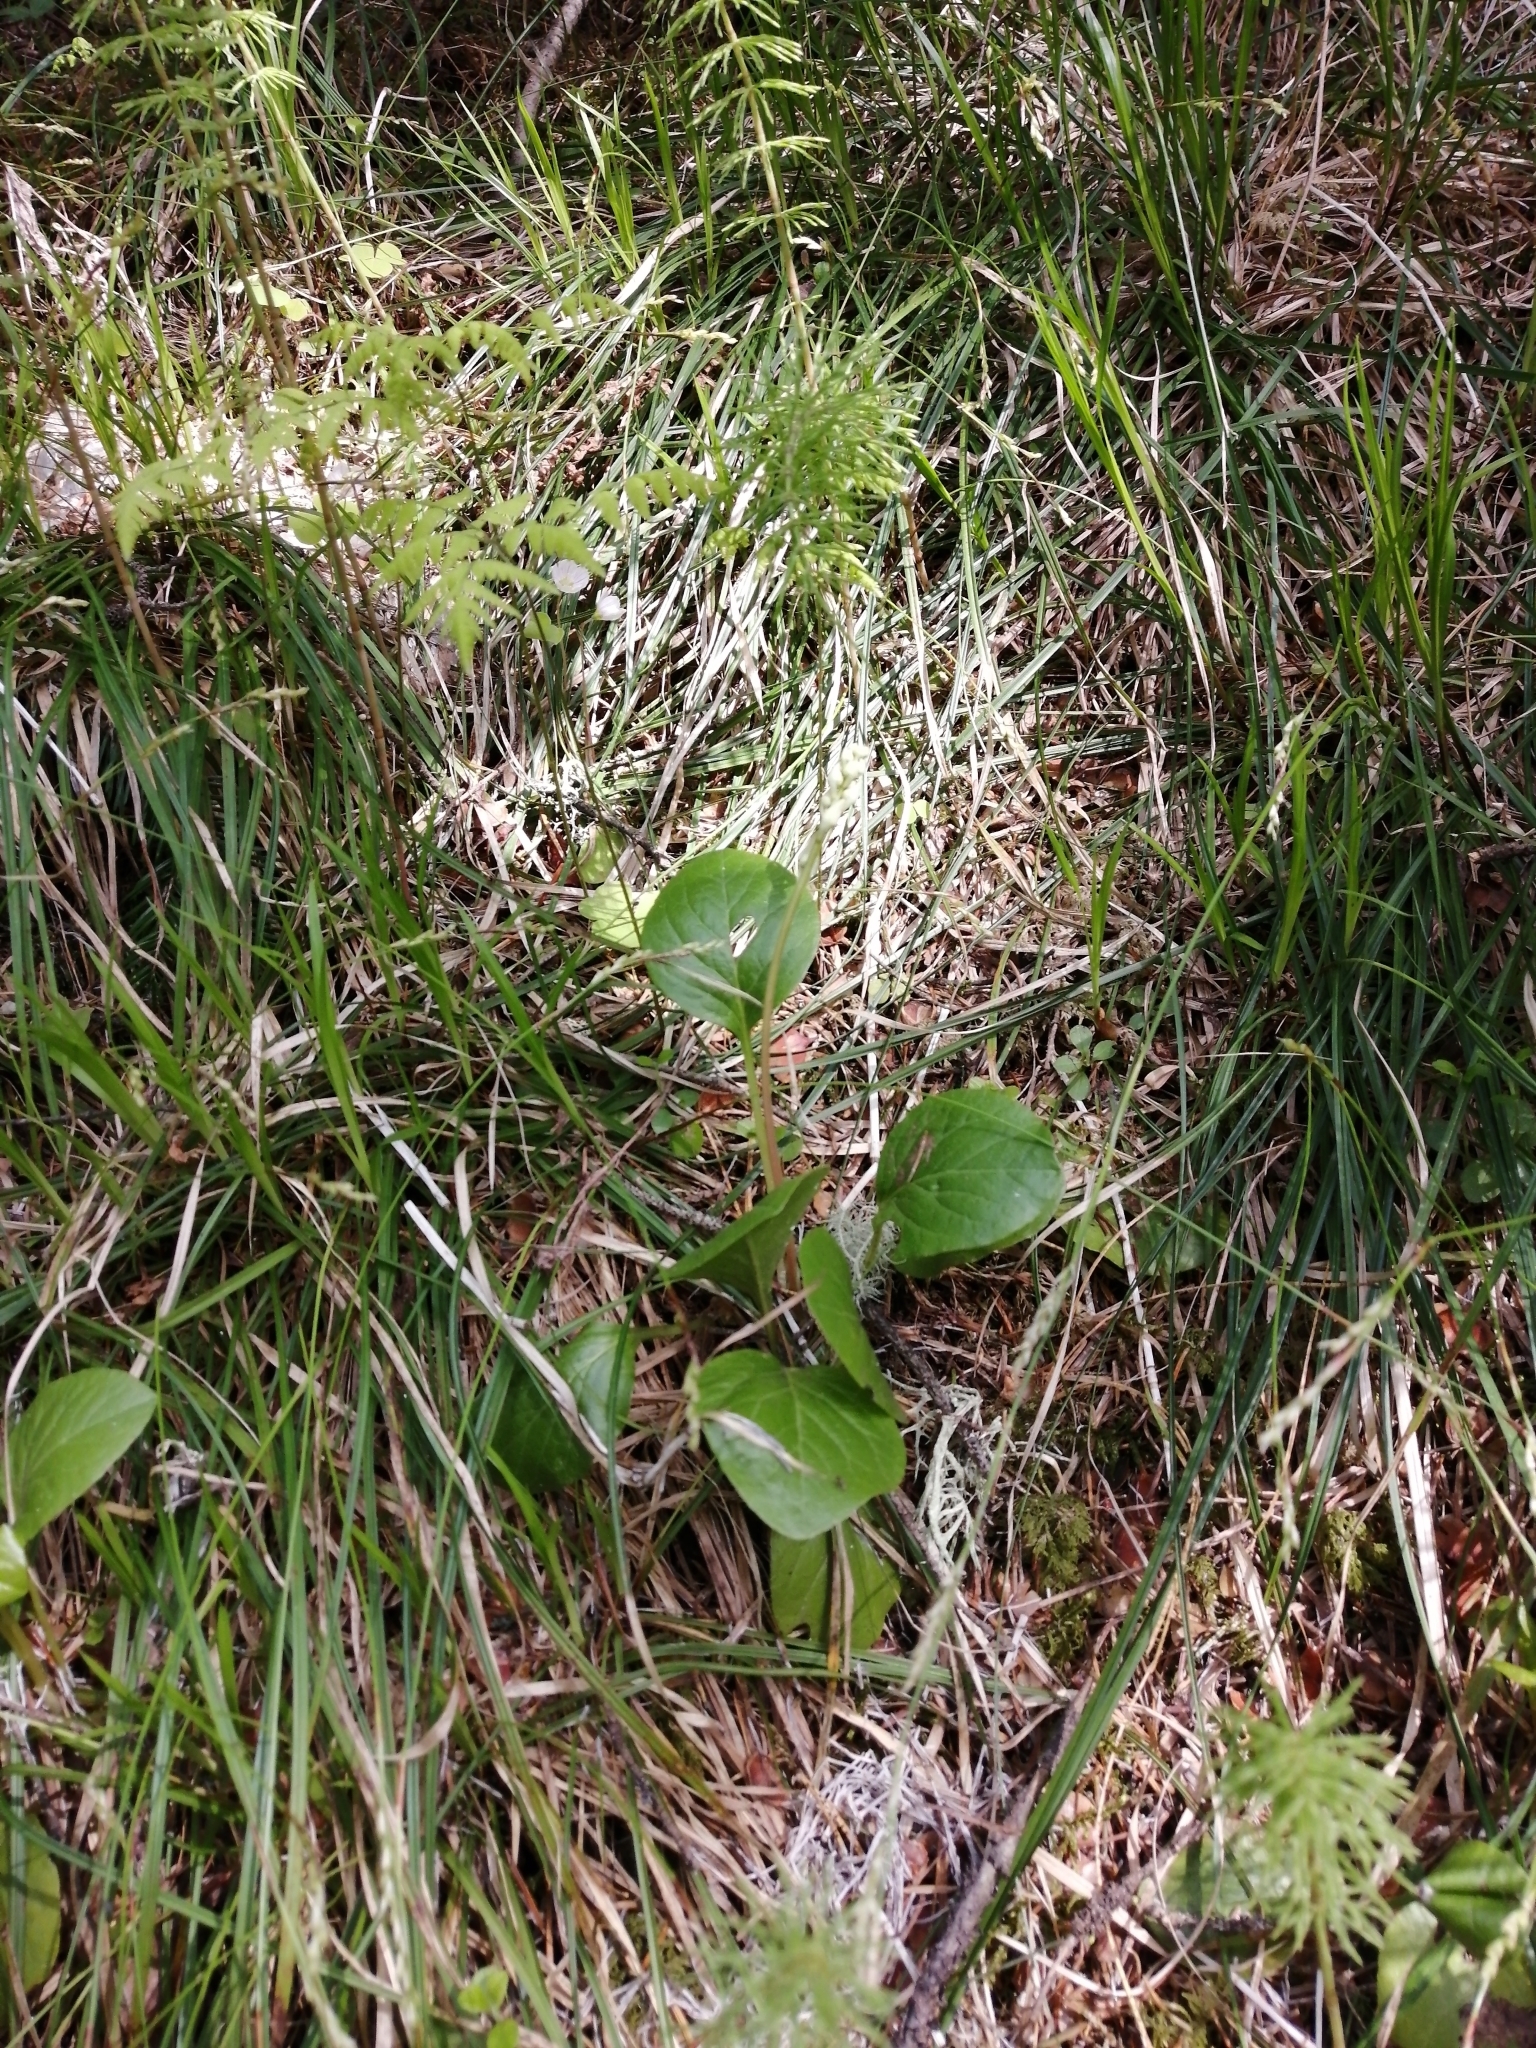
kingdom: Plantae
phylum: Tracheophyta
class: Magnoliopsida
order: Ericales
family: Ericaceae
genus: Pyrola
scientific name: Pyrola asarifolia
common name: Bog wintergreen
